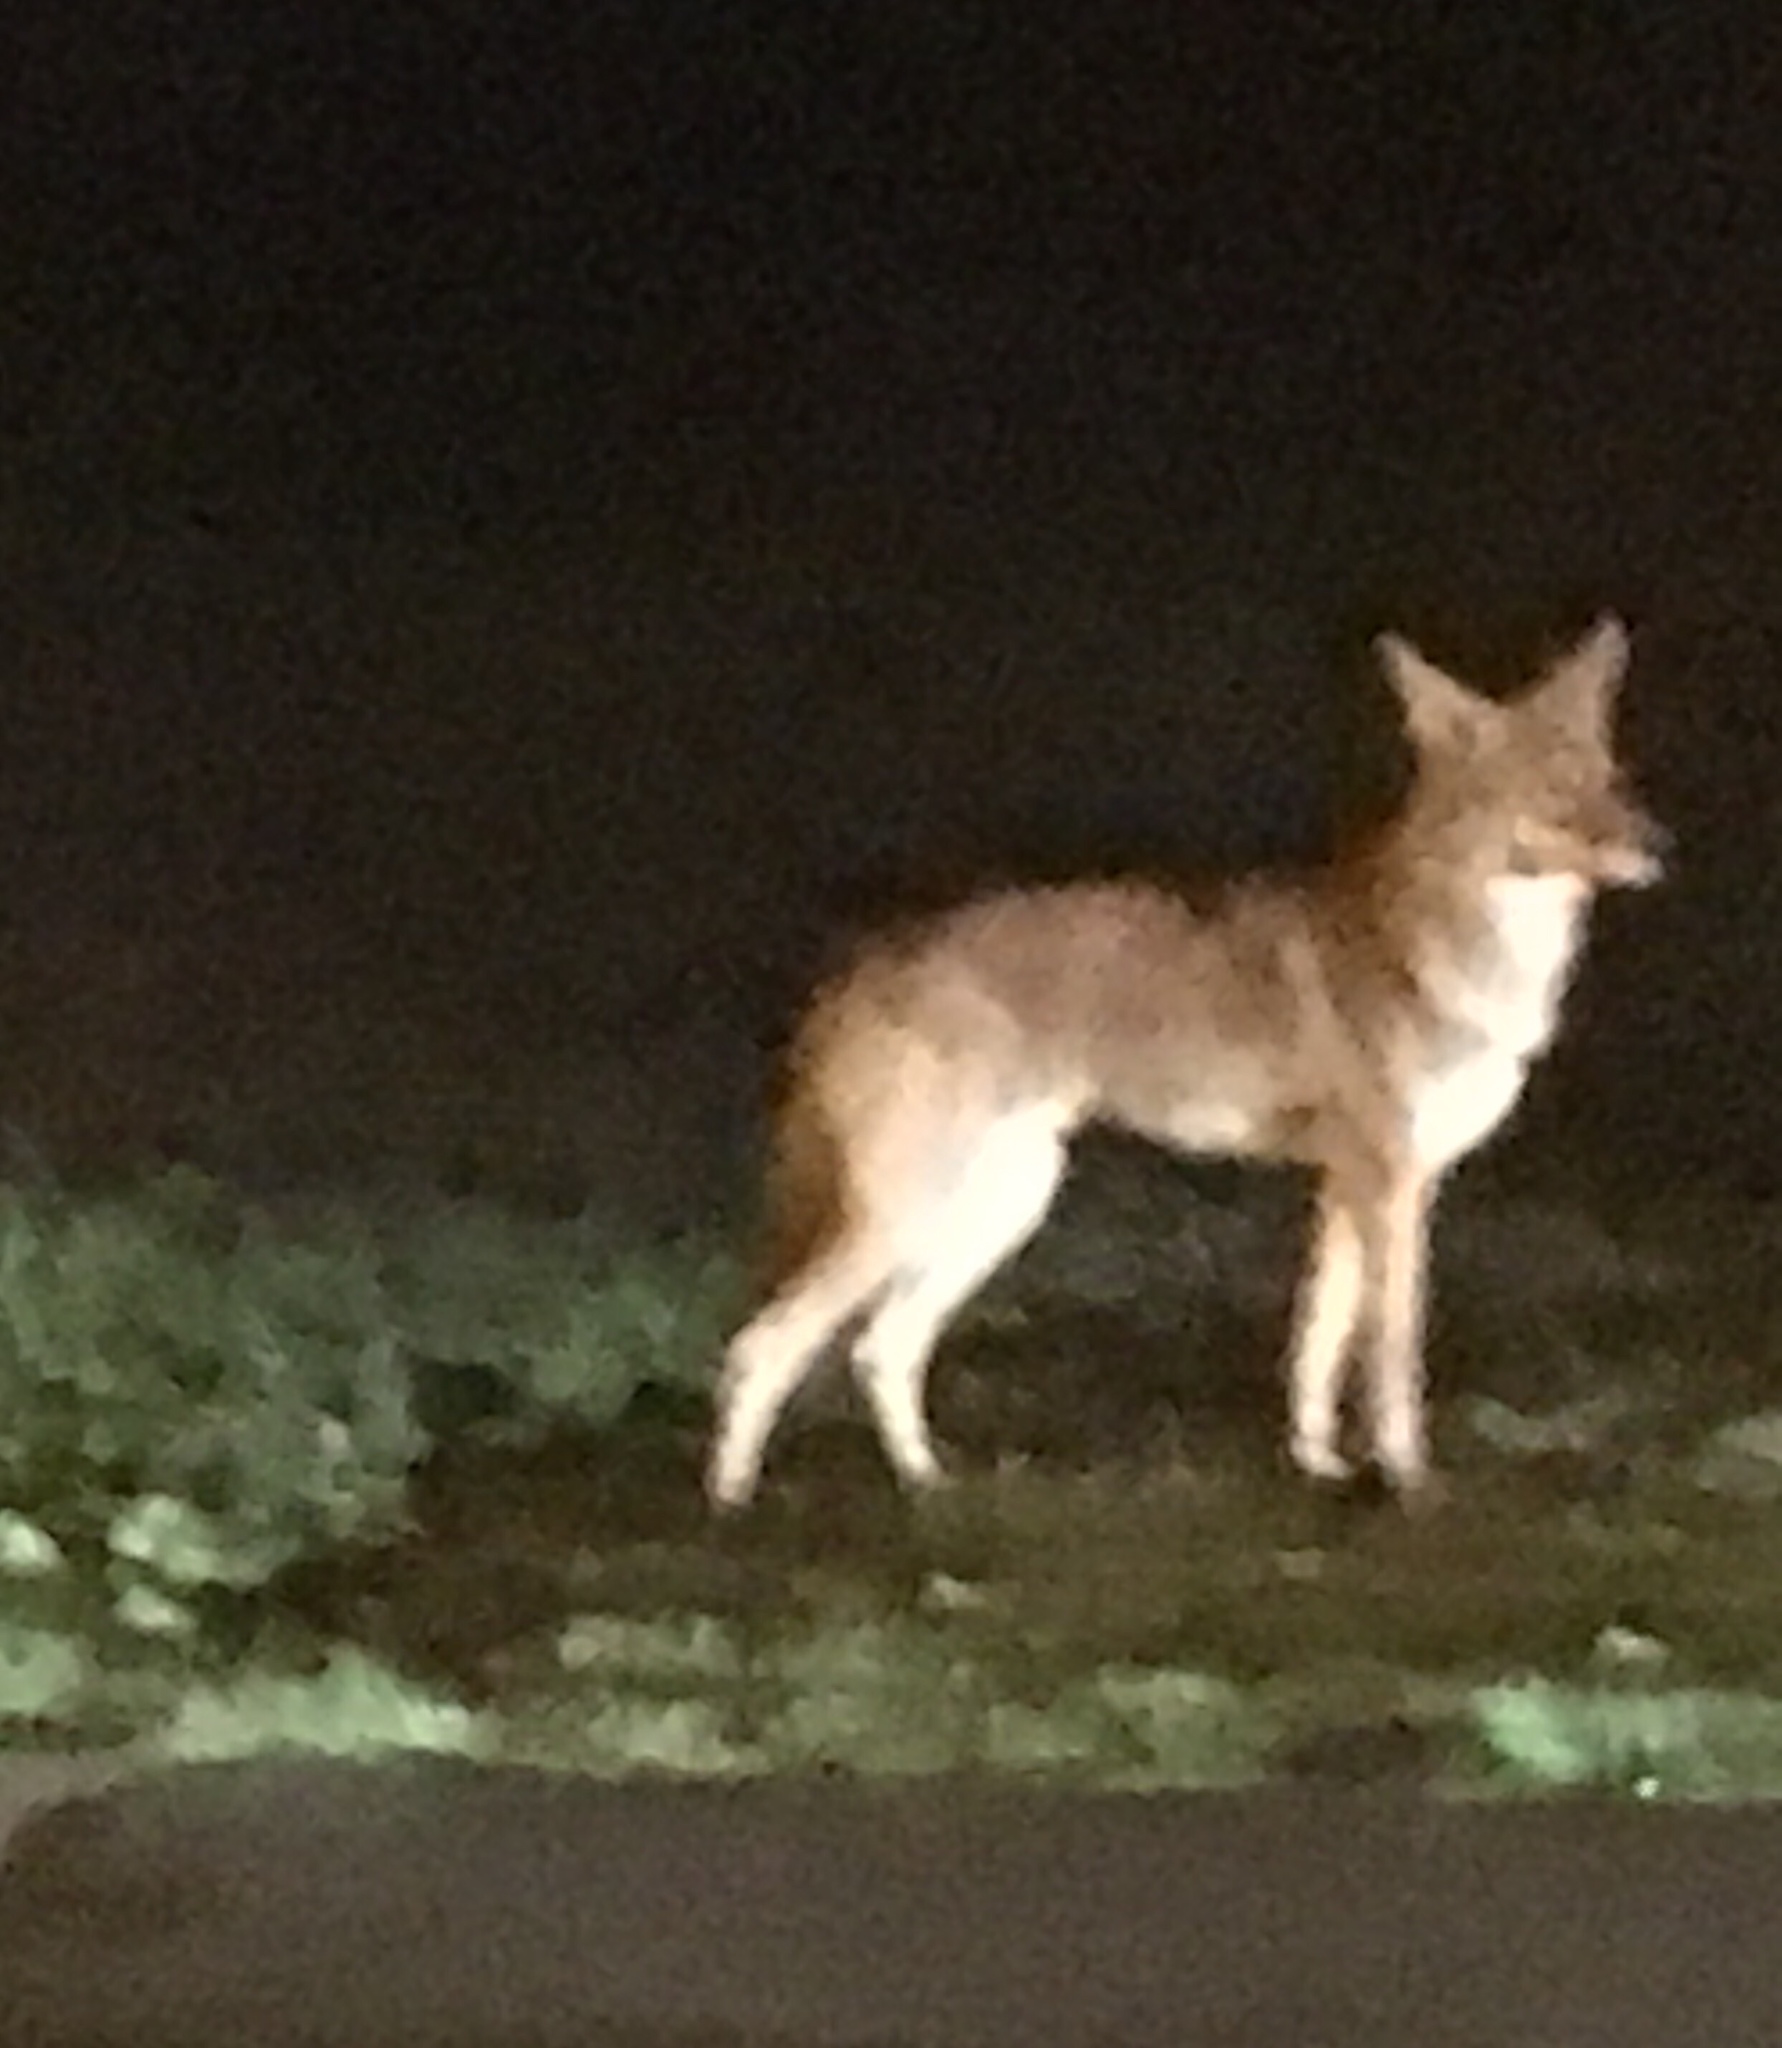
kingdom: Animalia
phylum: Chordata
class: Mammalia
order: Carnivora
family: Canidae
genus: Canis
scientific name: Canis latrans
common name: Coyote
